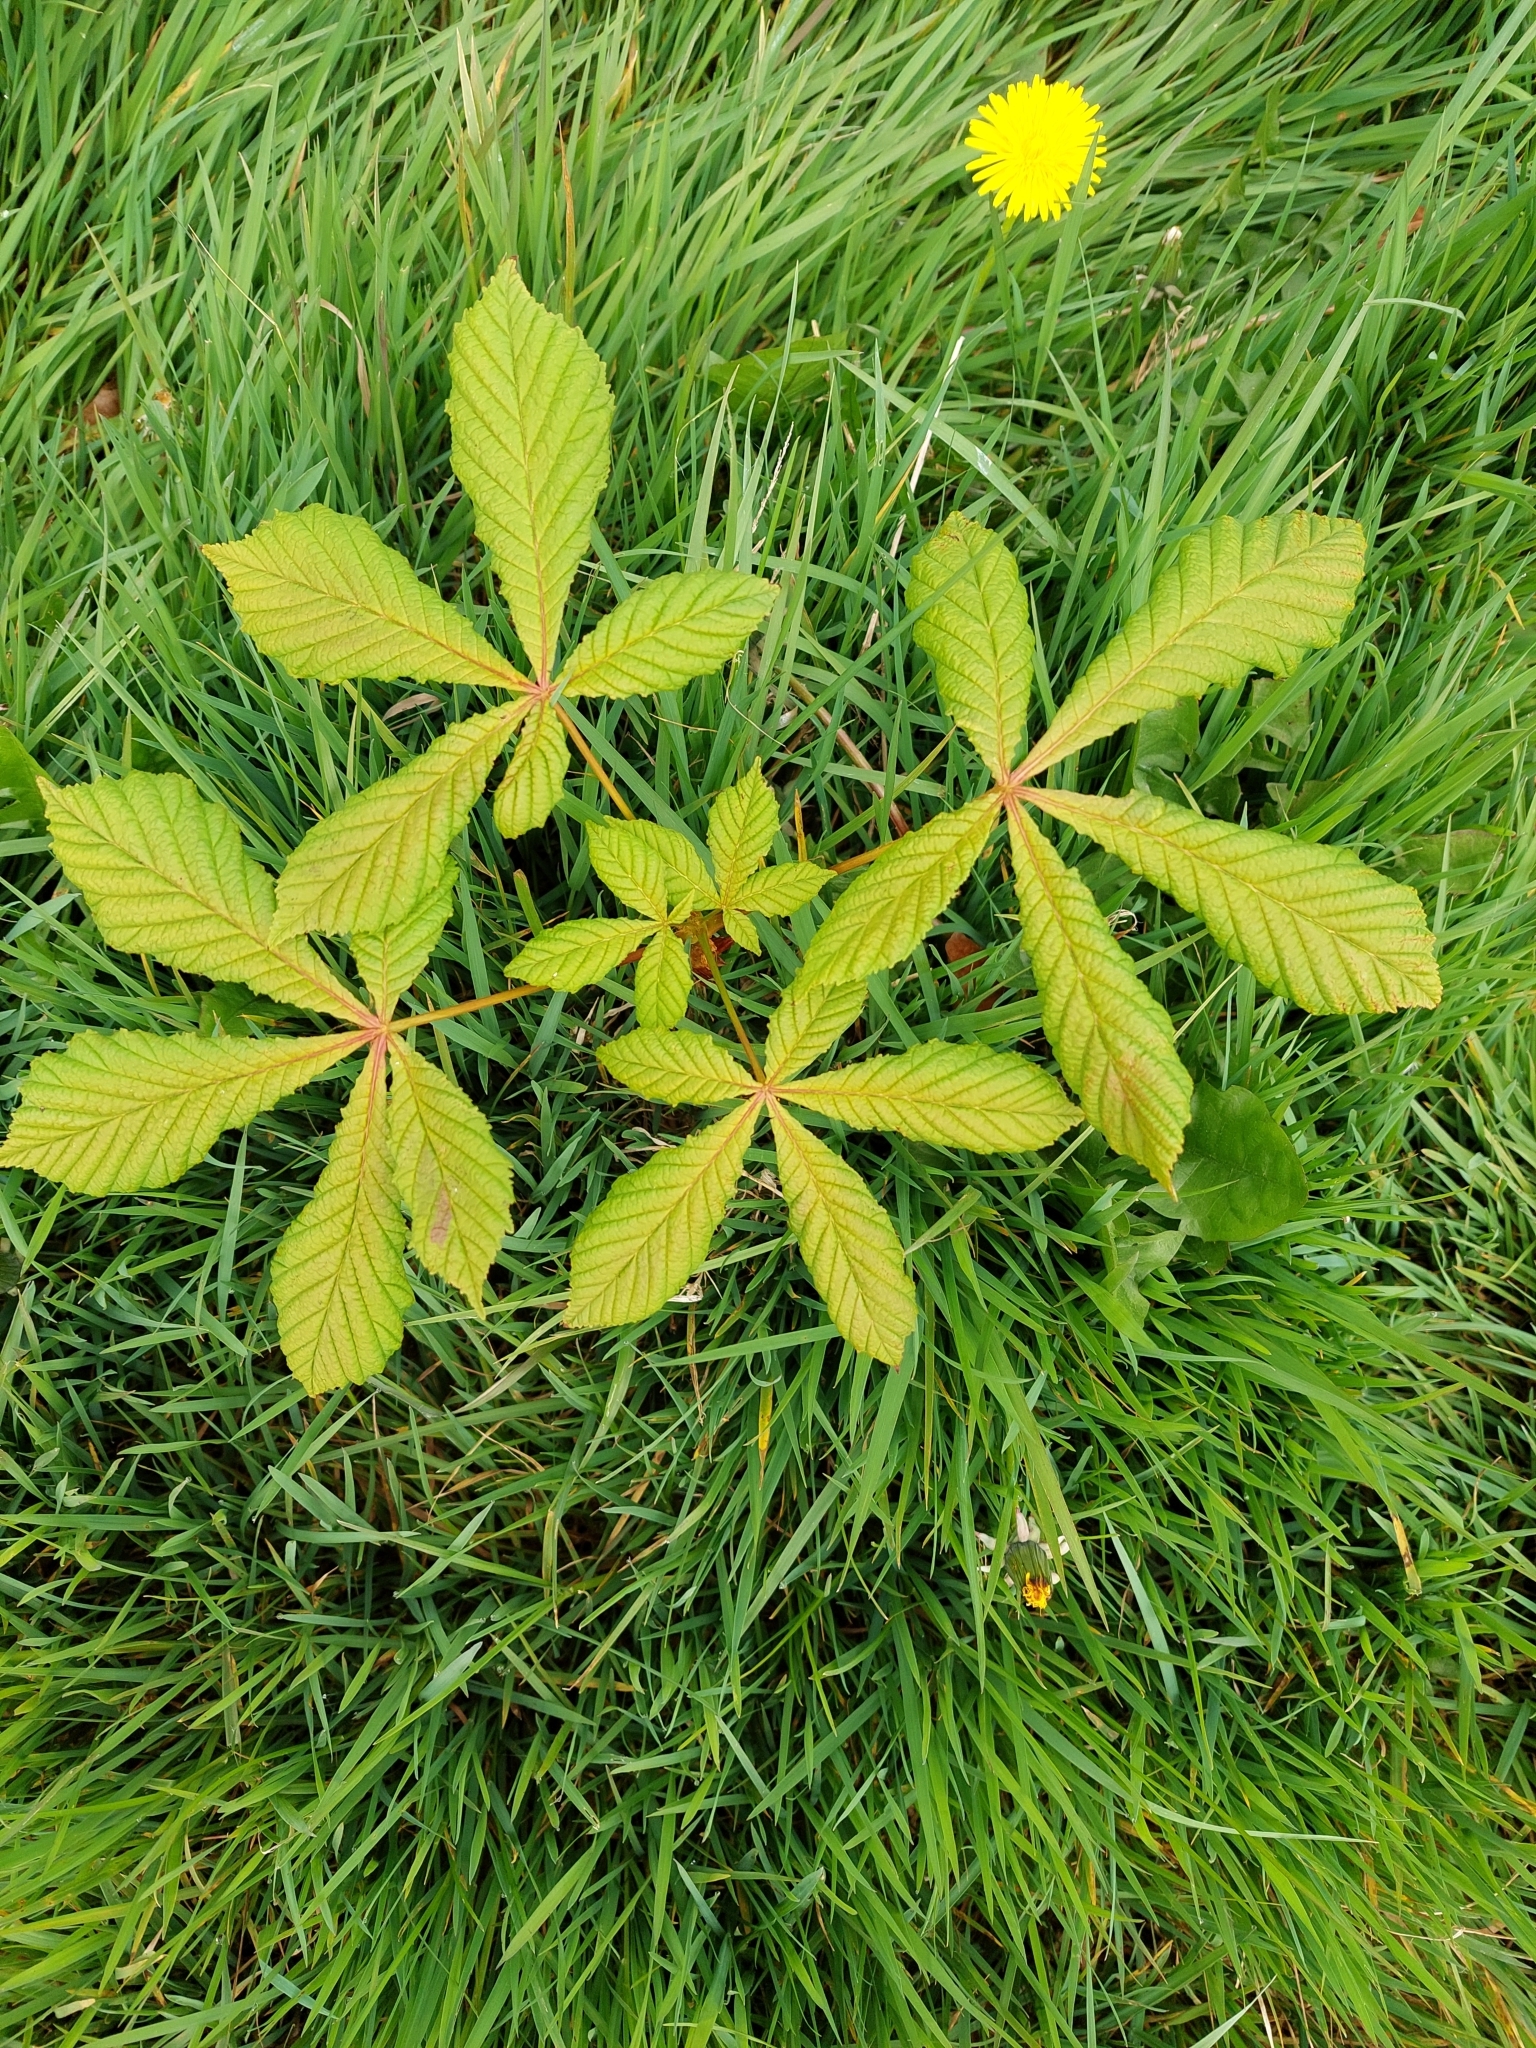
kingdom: Plantae
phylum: Tracheophyta
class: Magnoliopsida
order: Sapindales
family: Sapindaceae
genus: Aesculus
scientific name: Aesculus hippocastanum
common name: Horse-chestnut
